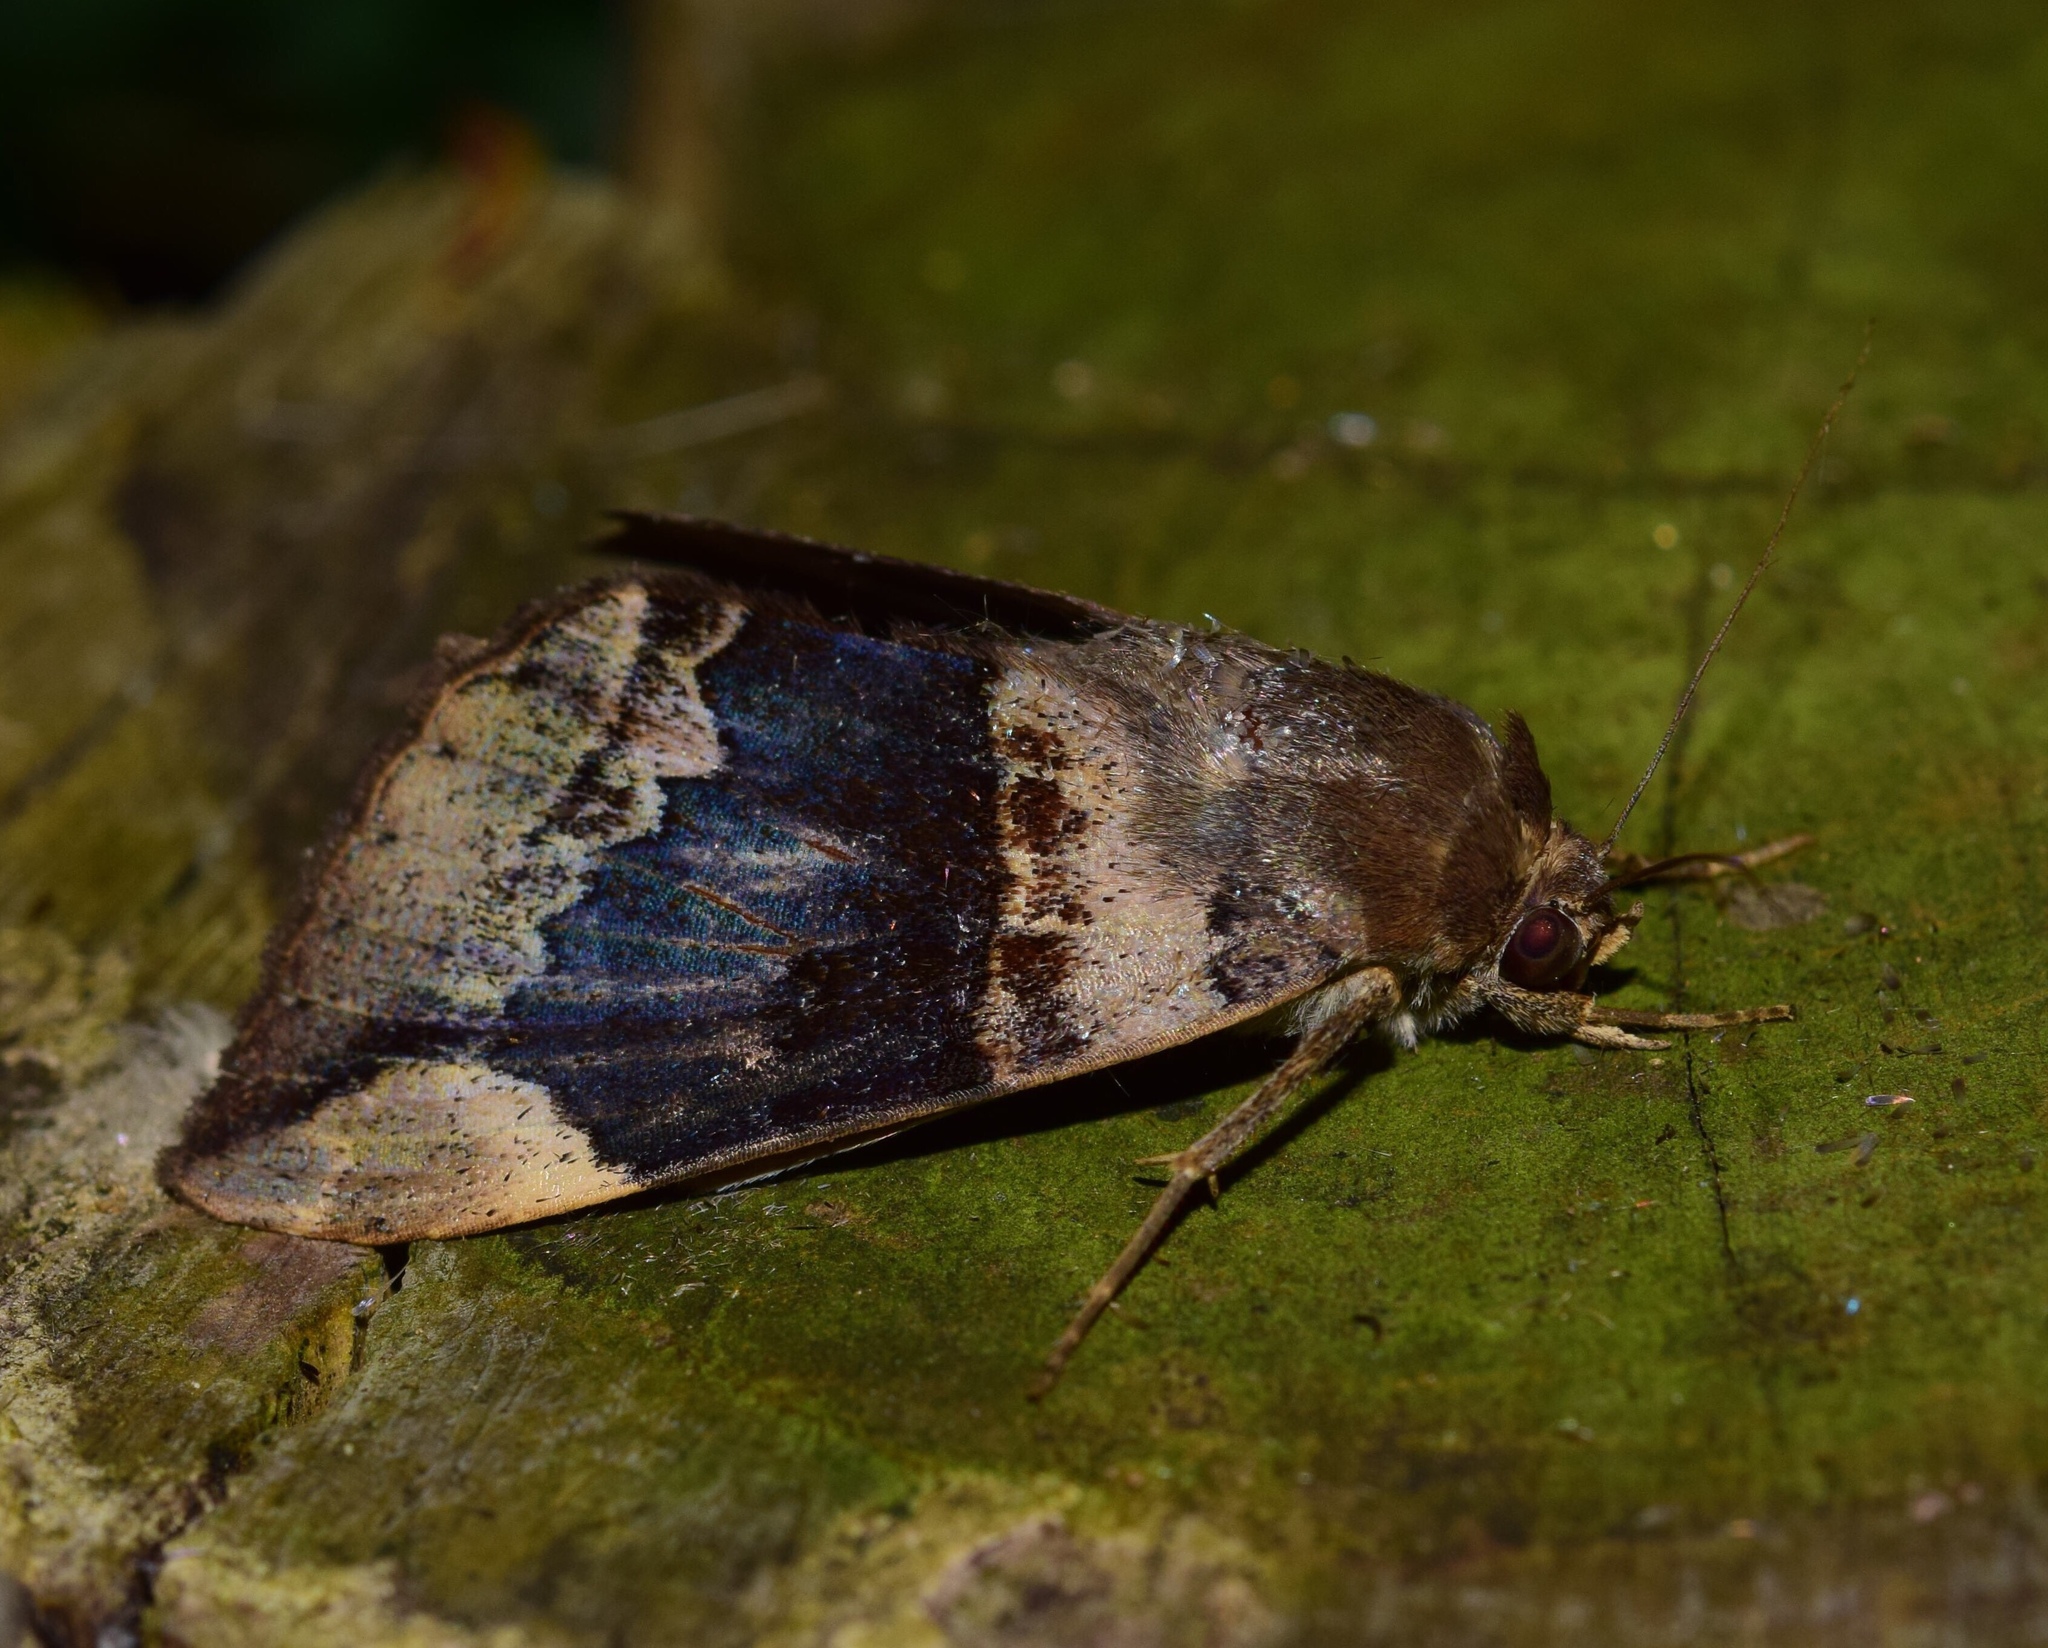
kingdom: Animalia
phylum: Arthropoda
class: Insecta
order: Lepidoptera
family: Erebidae
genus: Achaea
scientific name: Achaea lienardi
